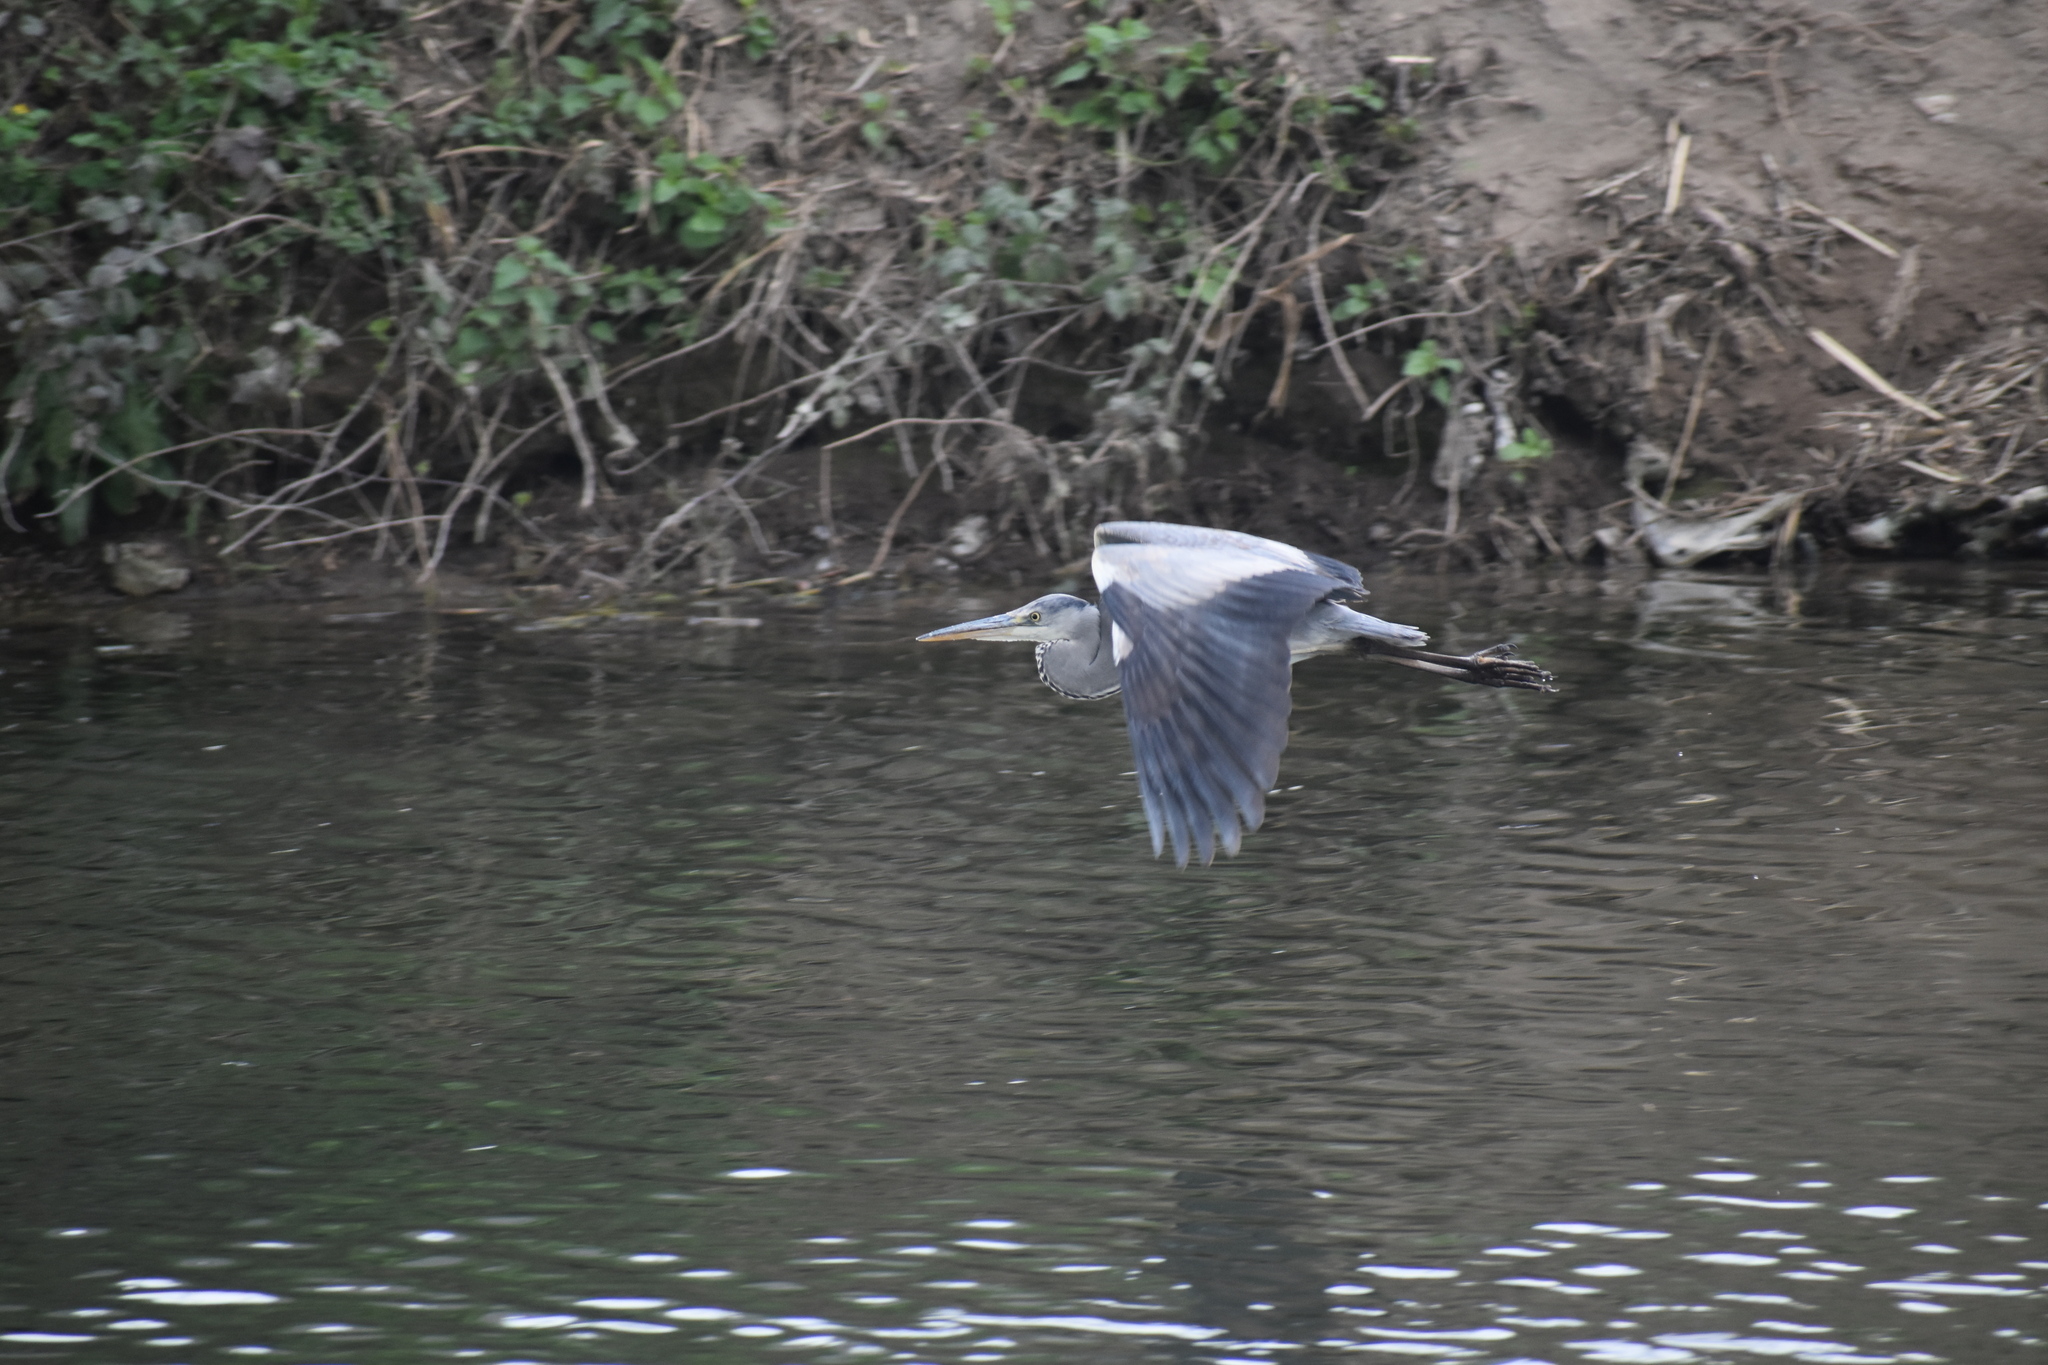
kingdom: Animalia
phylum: Chordata
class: Aves
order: Pelecaniformes
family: Ardeidae
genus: Ardea
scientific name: Ardea cinerea
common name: Grey heron
